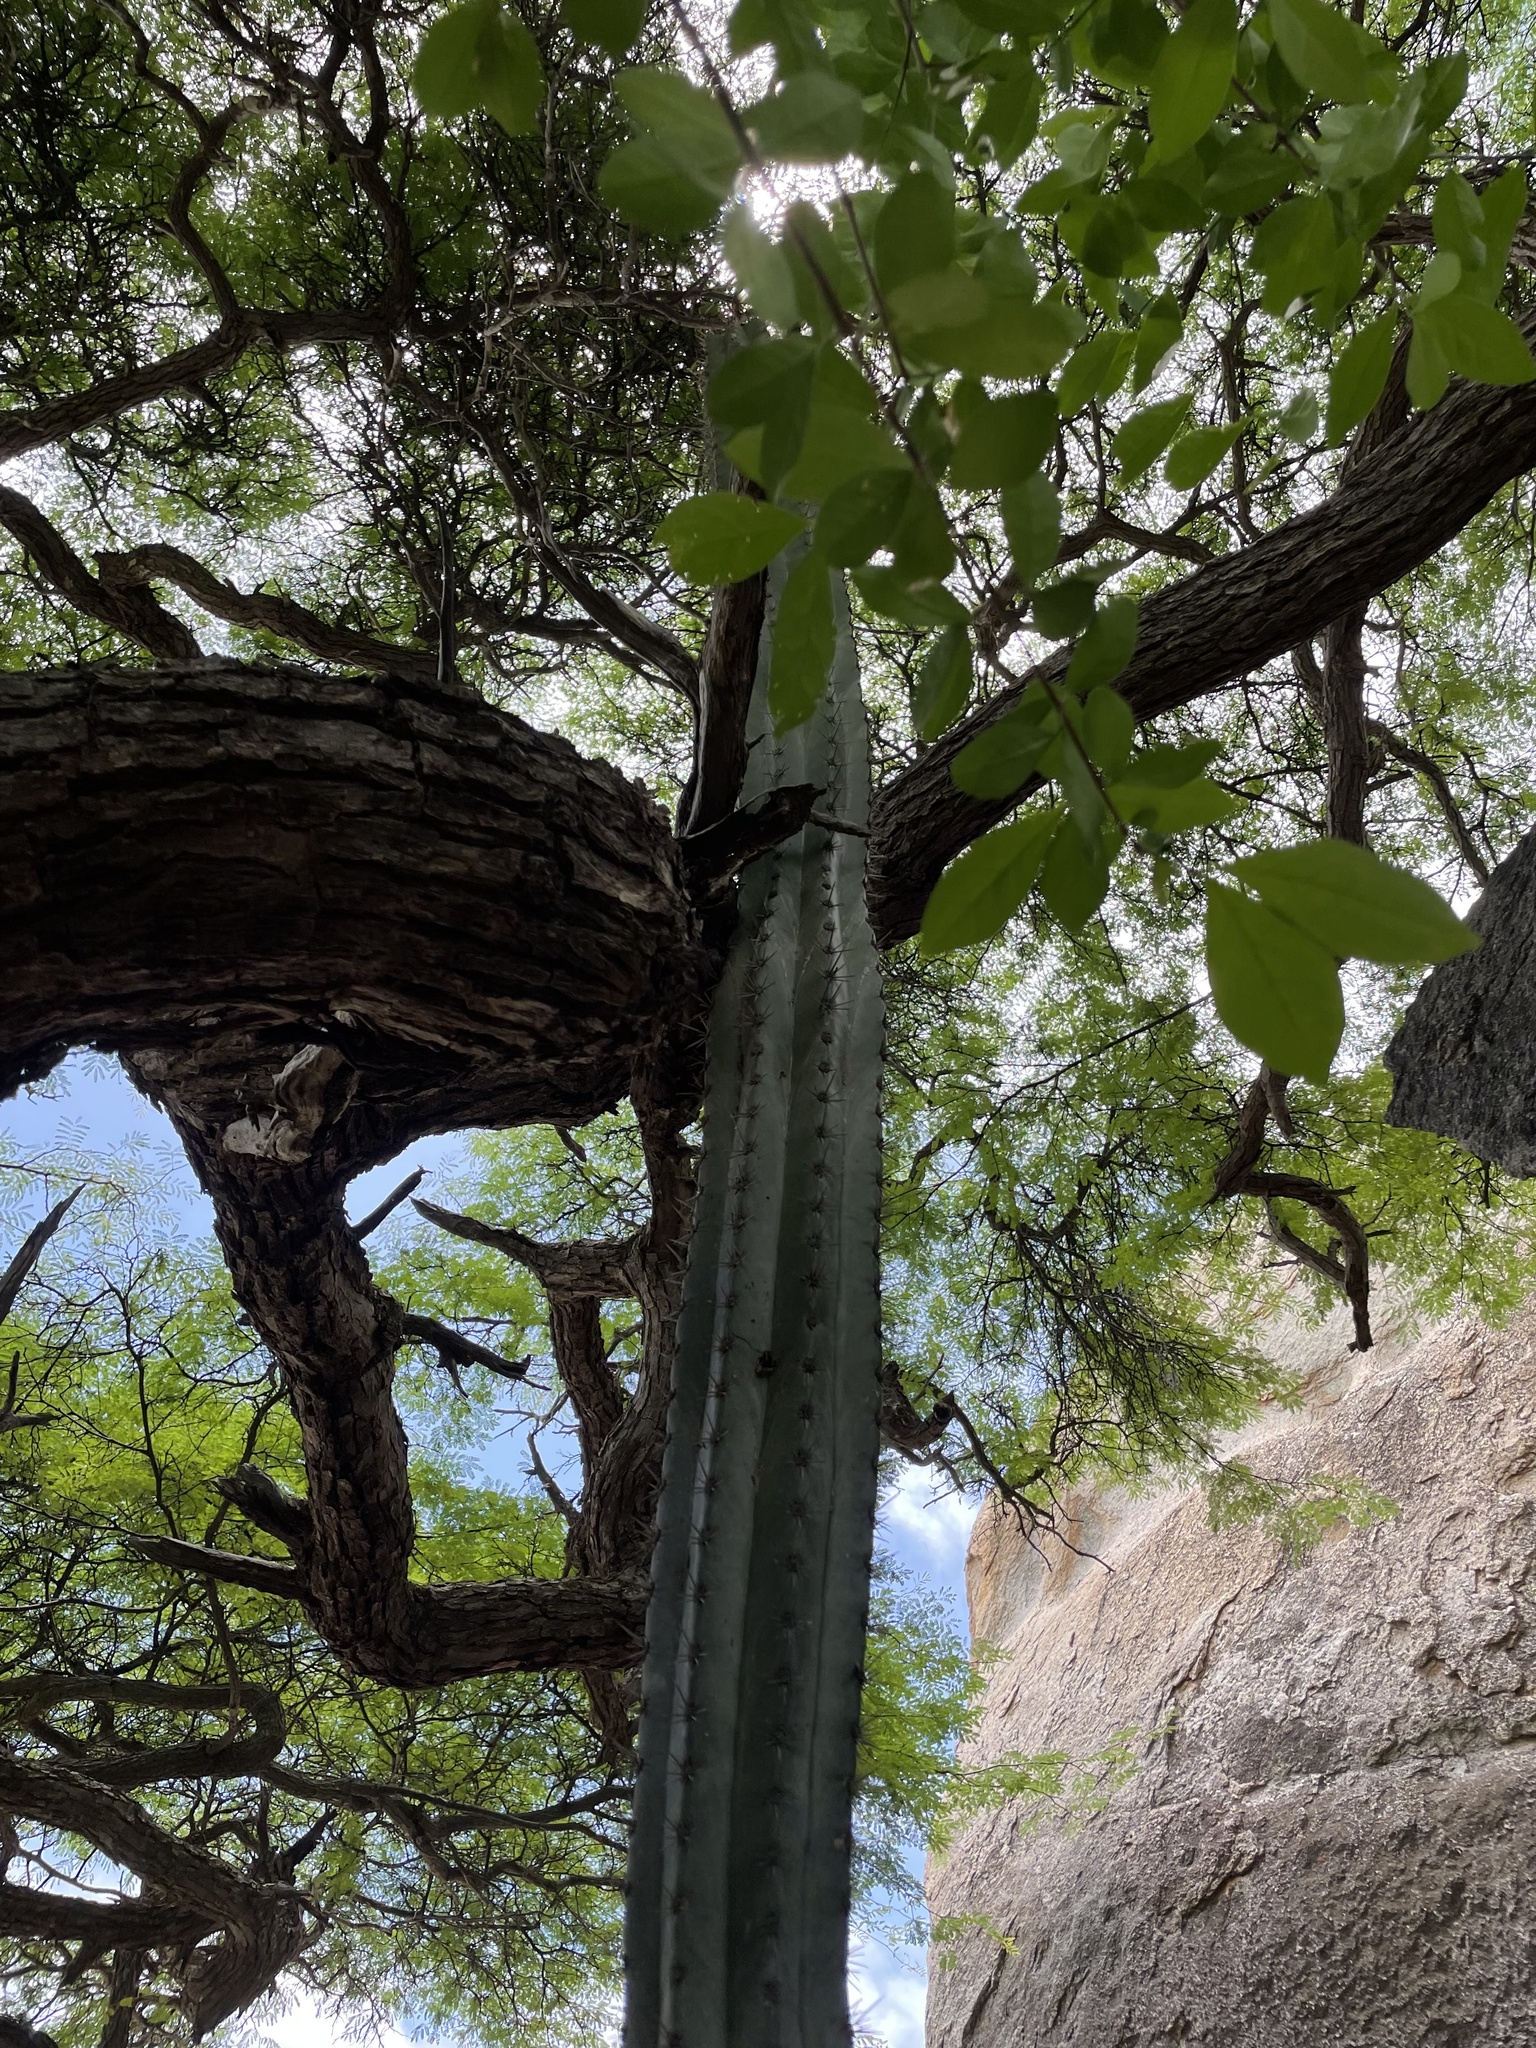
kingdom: Plantae
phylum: Tracheophyta
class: Magnoliopsida
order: Caryophyllales
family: Cactaceae
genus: Cereus
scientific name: Cereus repandus
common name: Sweetpotato cactus
